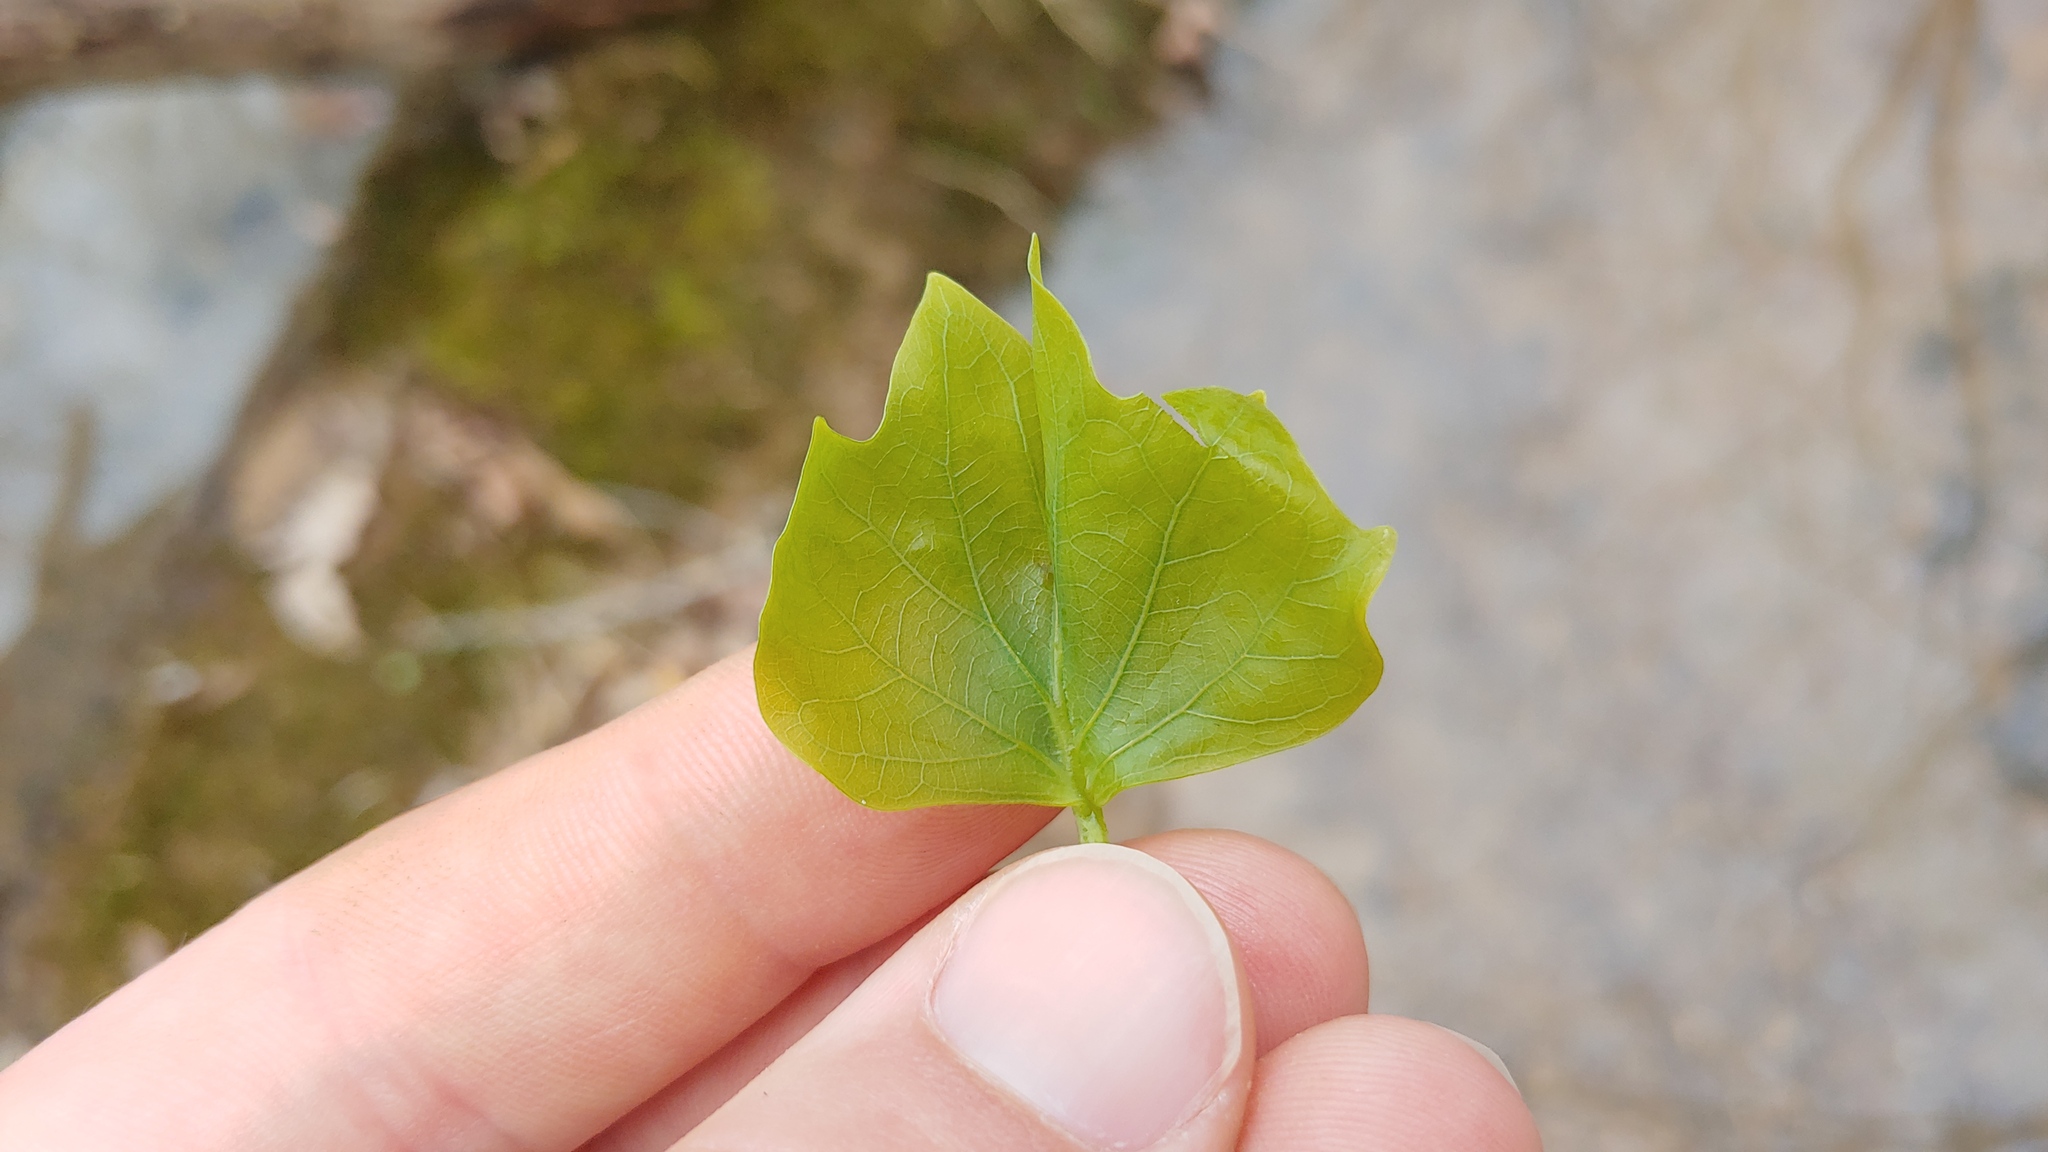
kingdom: Plantae
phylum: Tracheophyta
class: Magnoliopsida
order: Magnoliales
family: Magnoliaceae
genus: Liriodendron
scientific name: Liriodendron tulipifera
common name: Tulip tree
